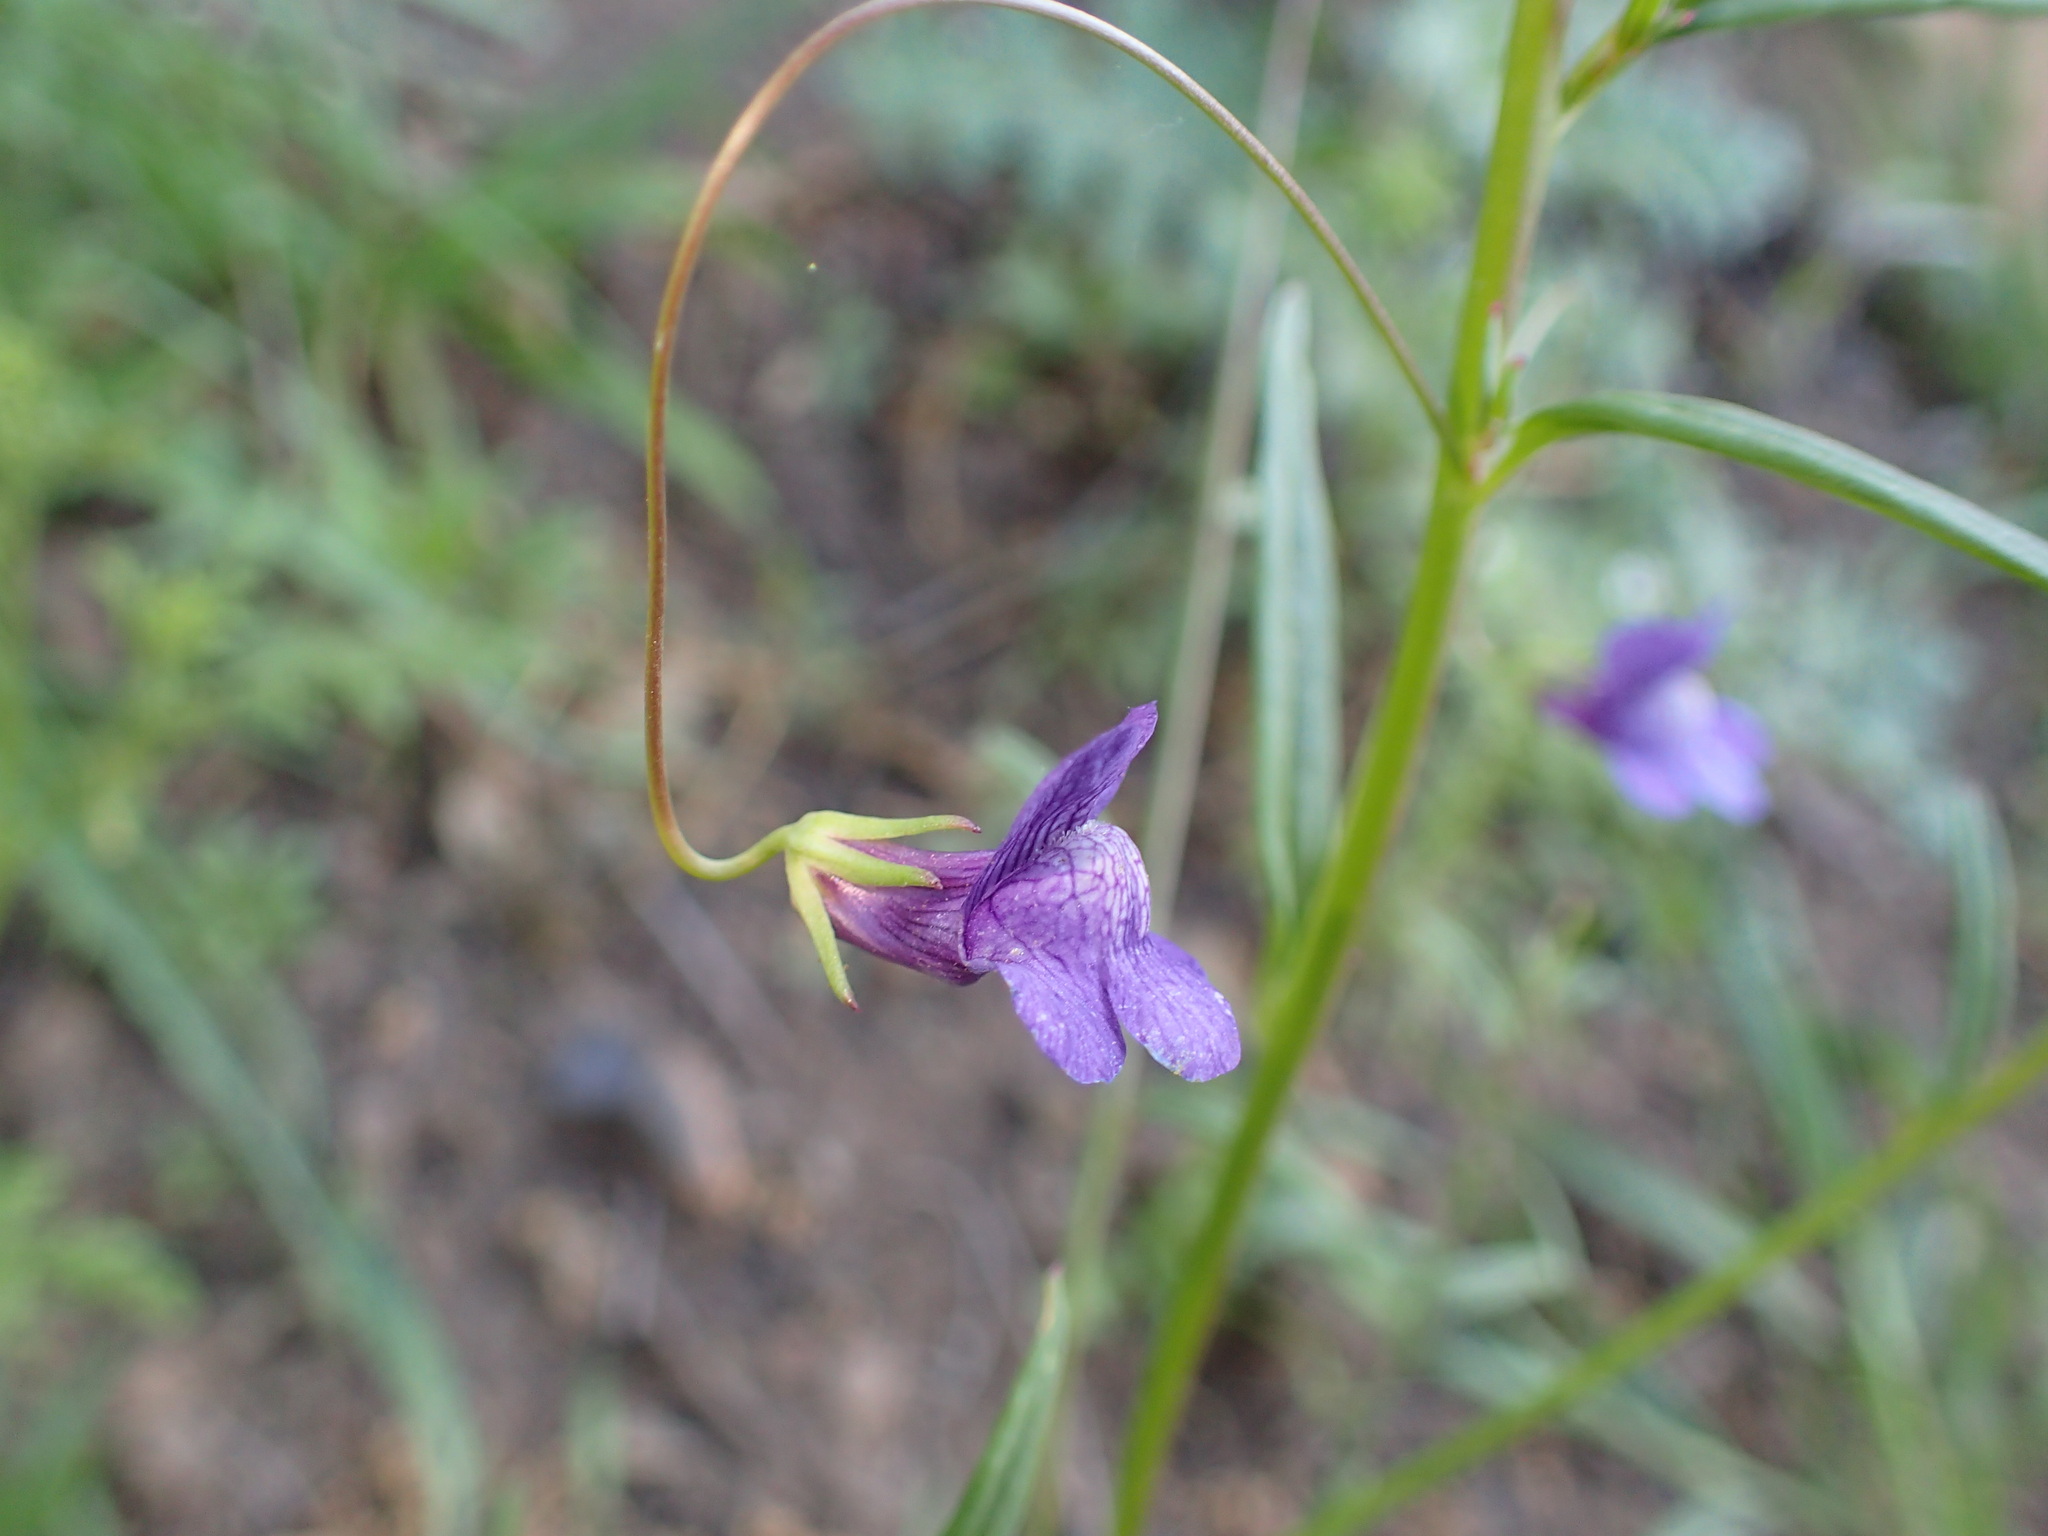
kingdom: Plantae
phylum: Tracheophyta
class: Magnoliopsida
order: Lamiales
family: Plantaginaceae
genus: Neogaerrhinum
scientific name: Neogaerrhinum strictum
